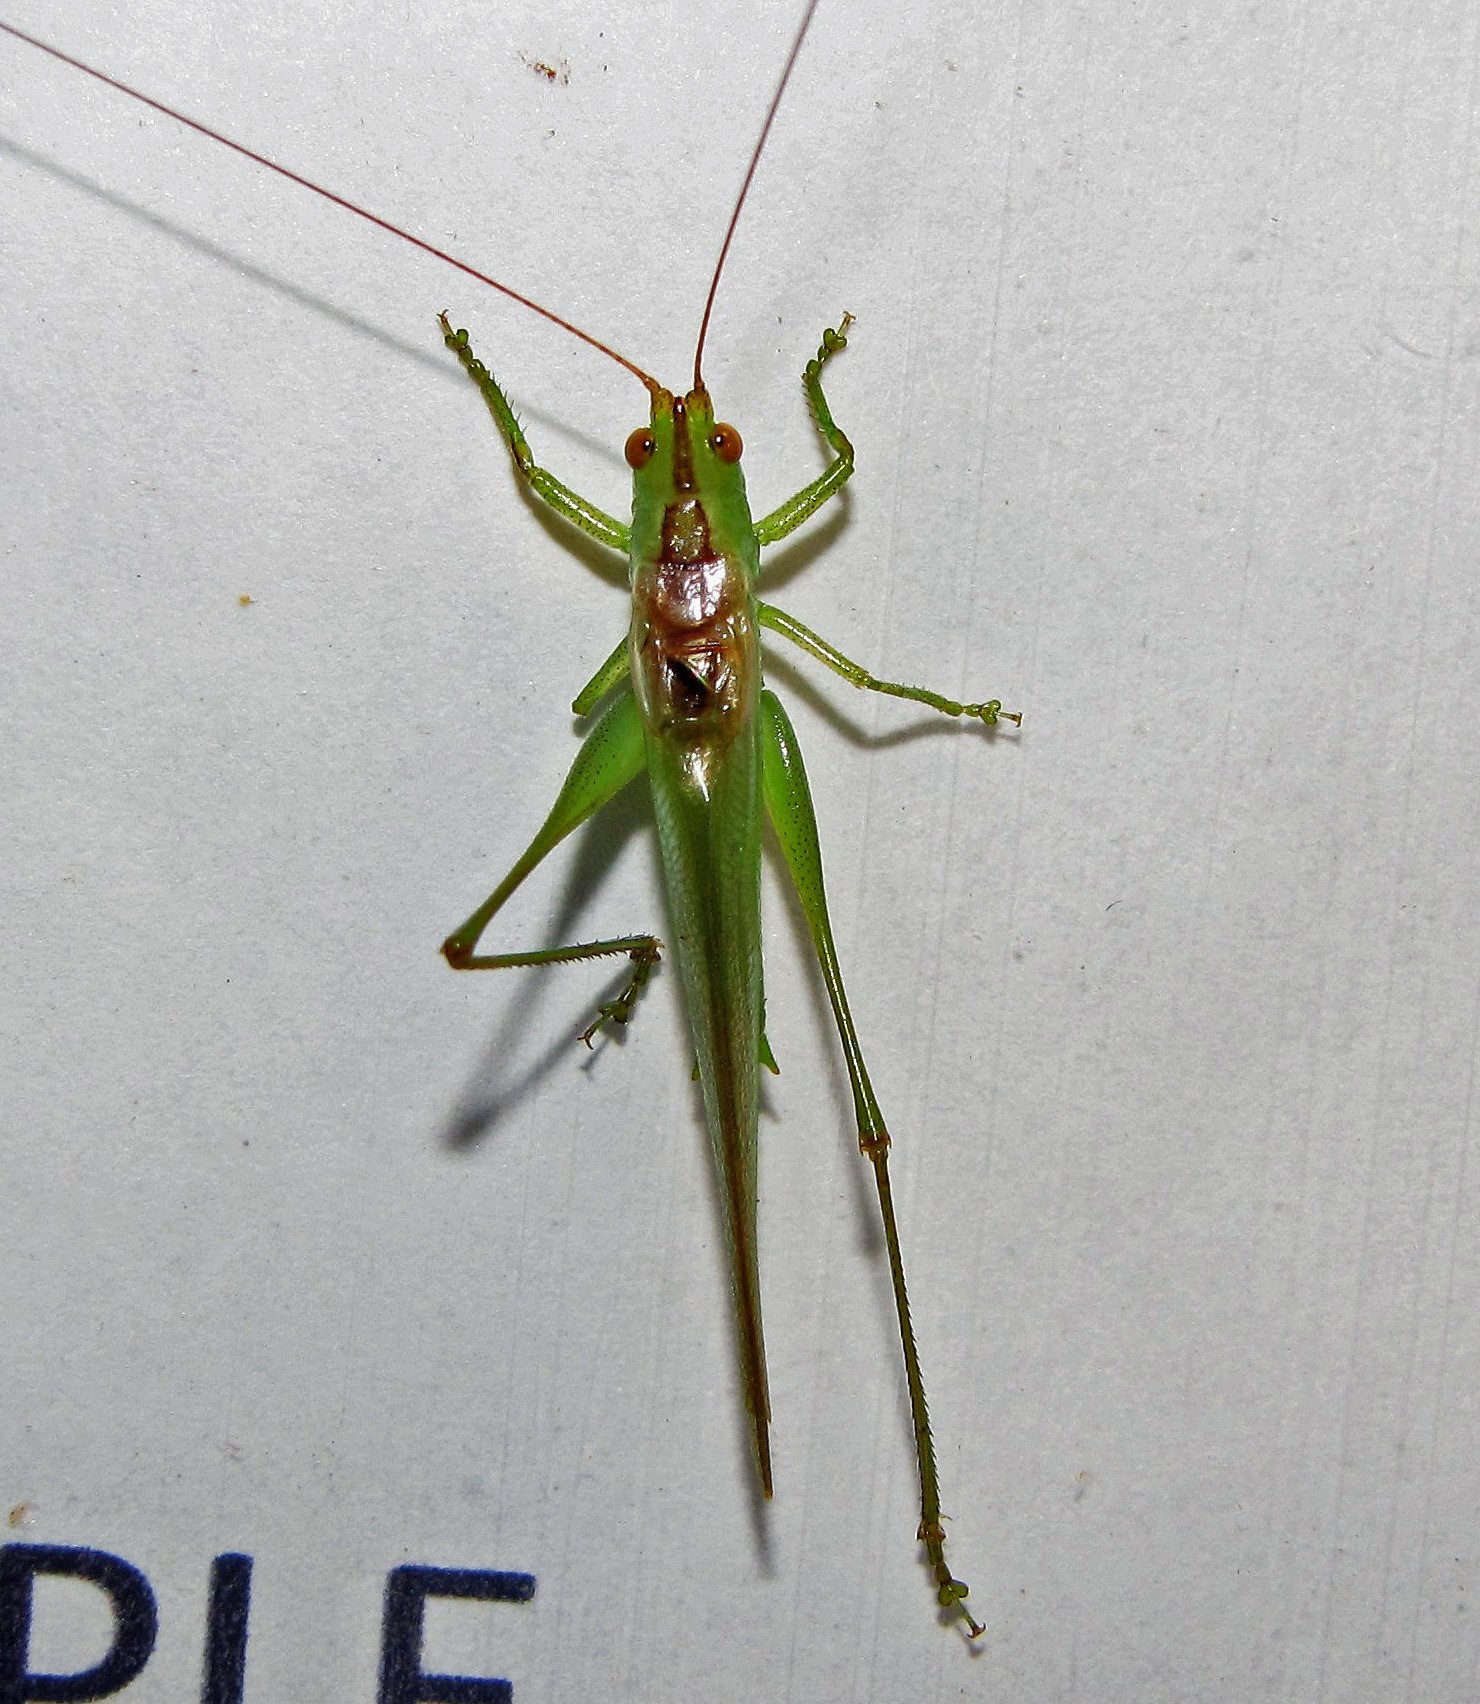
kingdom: Animalia
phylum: Arthropoda
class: Insecta
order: Orthoptera
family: Tettigoniidae
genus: Conocephalus
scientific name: Conocephalus longipes
